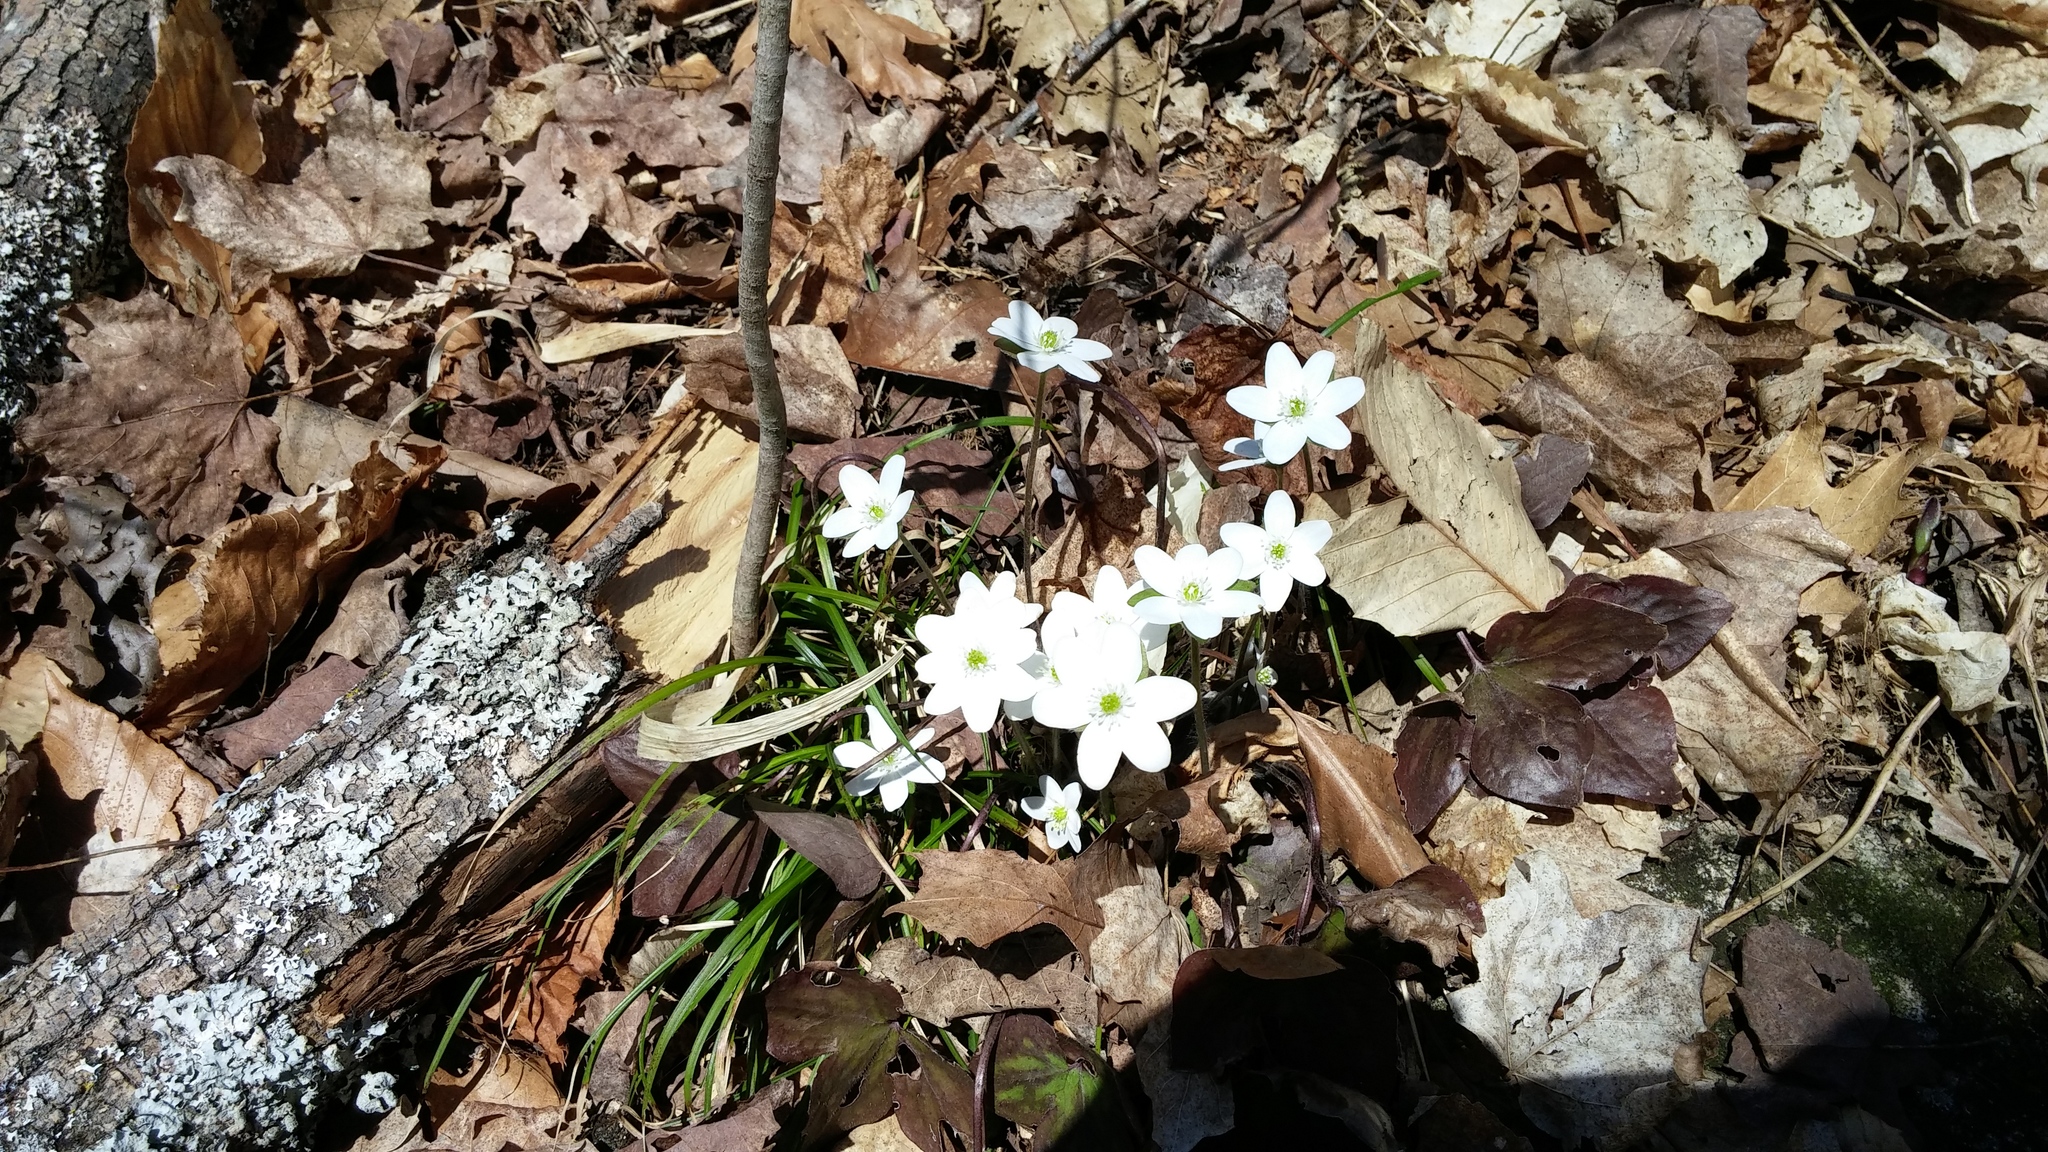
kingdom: Plantae
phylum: Tracheophyta
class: Magnoliopsida
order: Ranunculales
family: Ranunculaceae
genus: Hepatica
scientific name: Hepatica acutiloba
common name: Sharp-lobed hepatica
